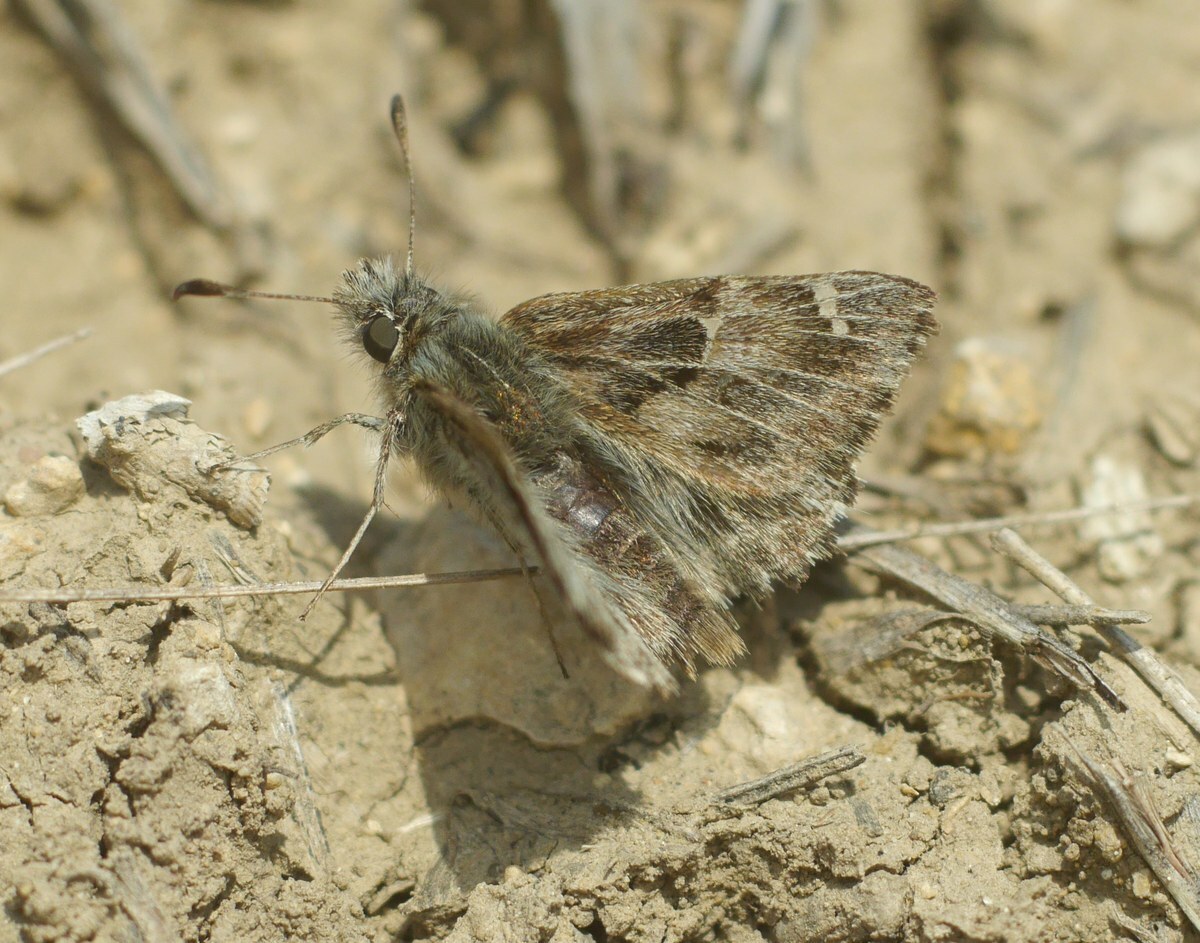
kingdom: Animalia
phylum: Arthropoda
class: Insecta
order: Lepidoptera
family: Hesperiidae
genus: Carcharodus
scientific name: Carcharodus alceae
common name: Mallow skipper
